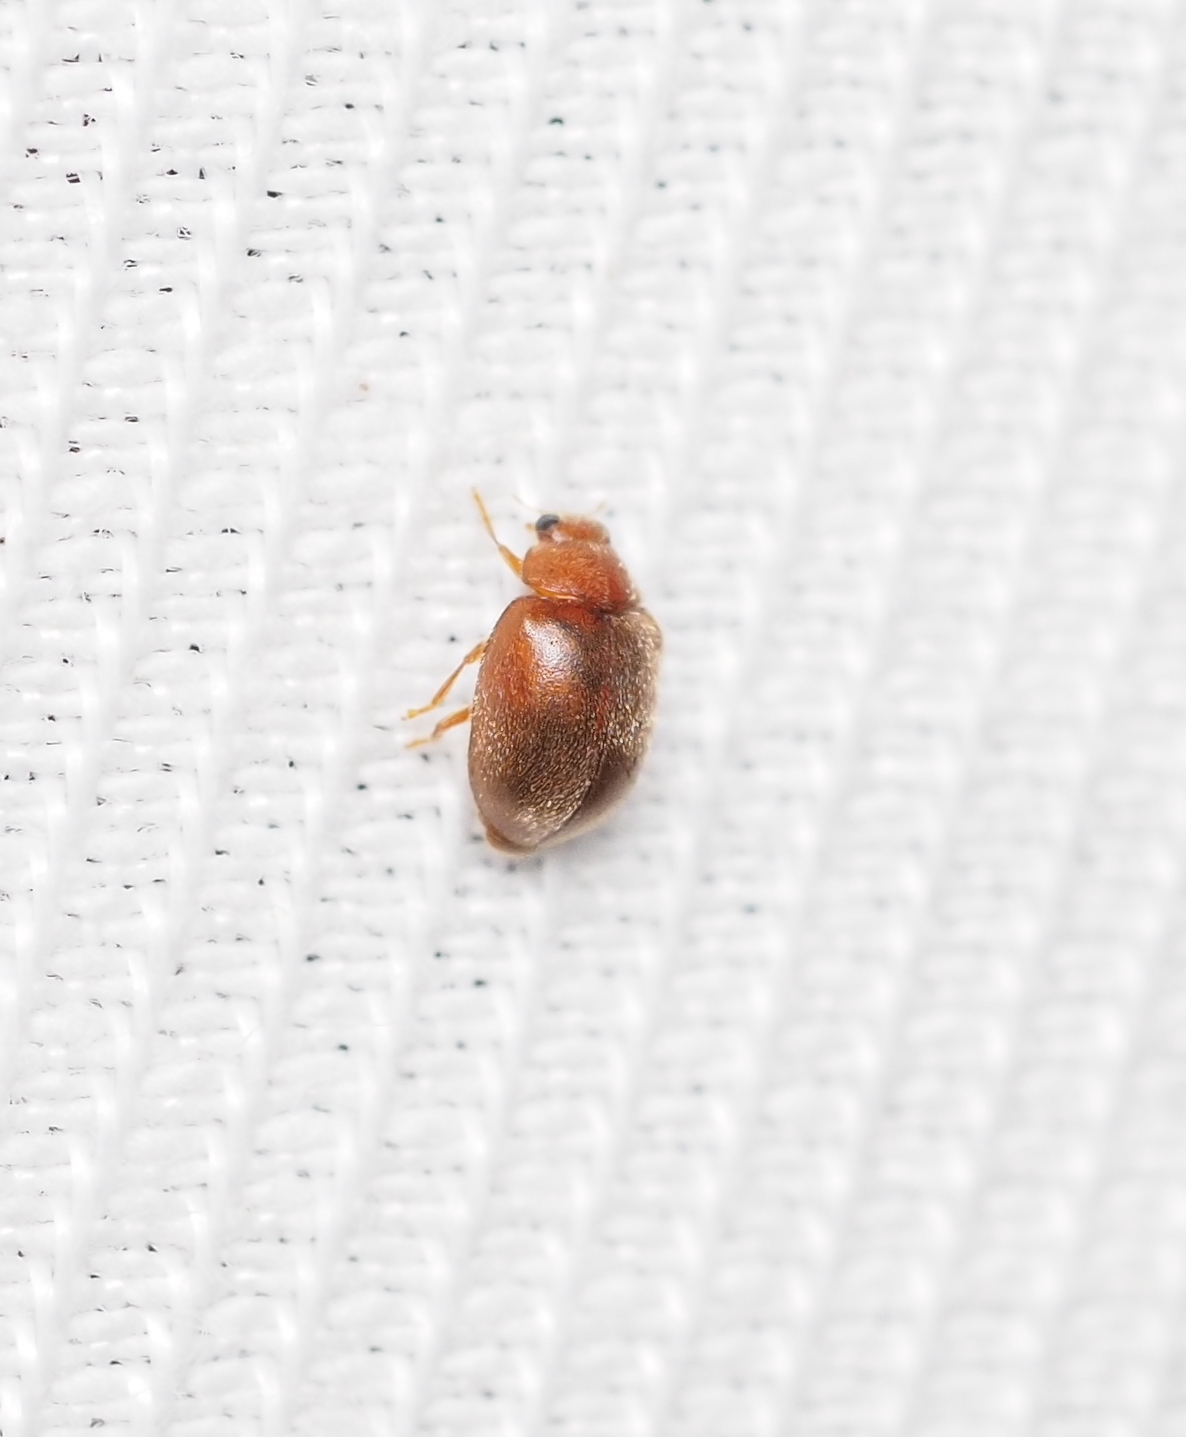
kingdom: Animalia
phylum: Arthropoda
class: Insecta
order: Coleoptera
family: Coccinellidae
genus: Scymnus
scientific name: Scymnus abietis
